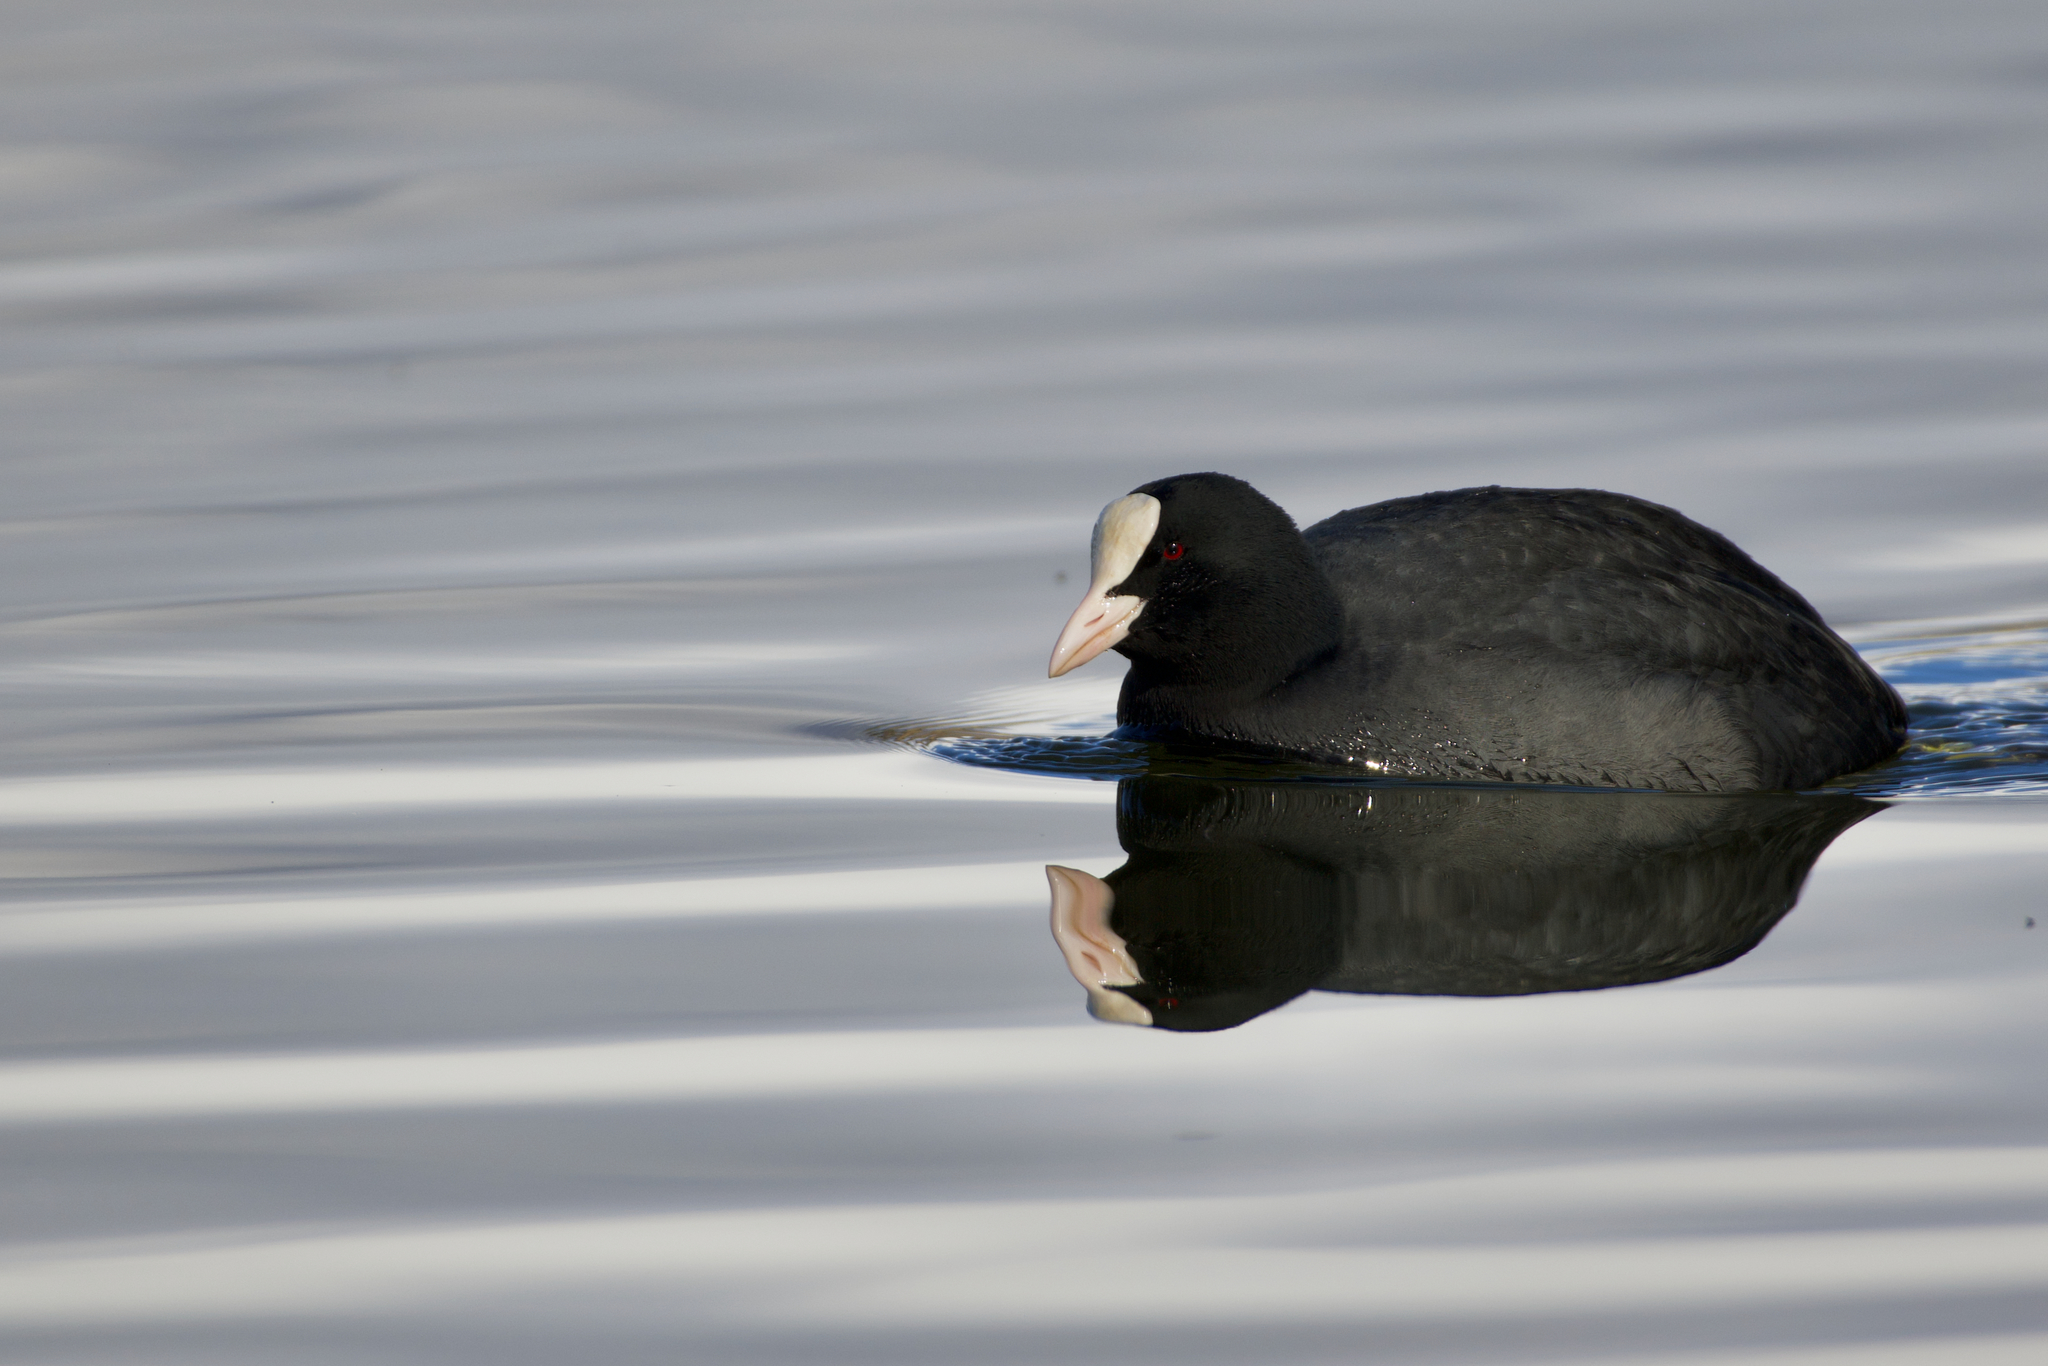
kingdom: Animalia
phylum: Chordata
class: Aves
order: Gruiformes
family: Rallidae
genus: Fulica
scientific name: Fulica atra
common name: Eurasian coot
